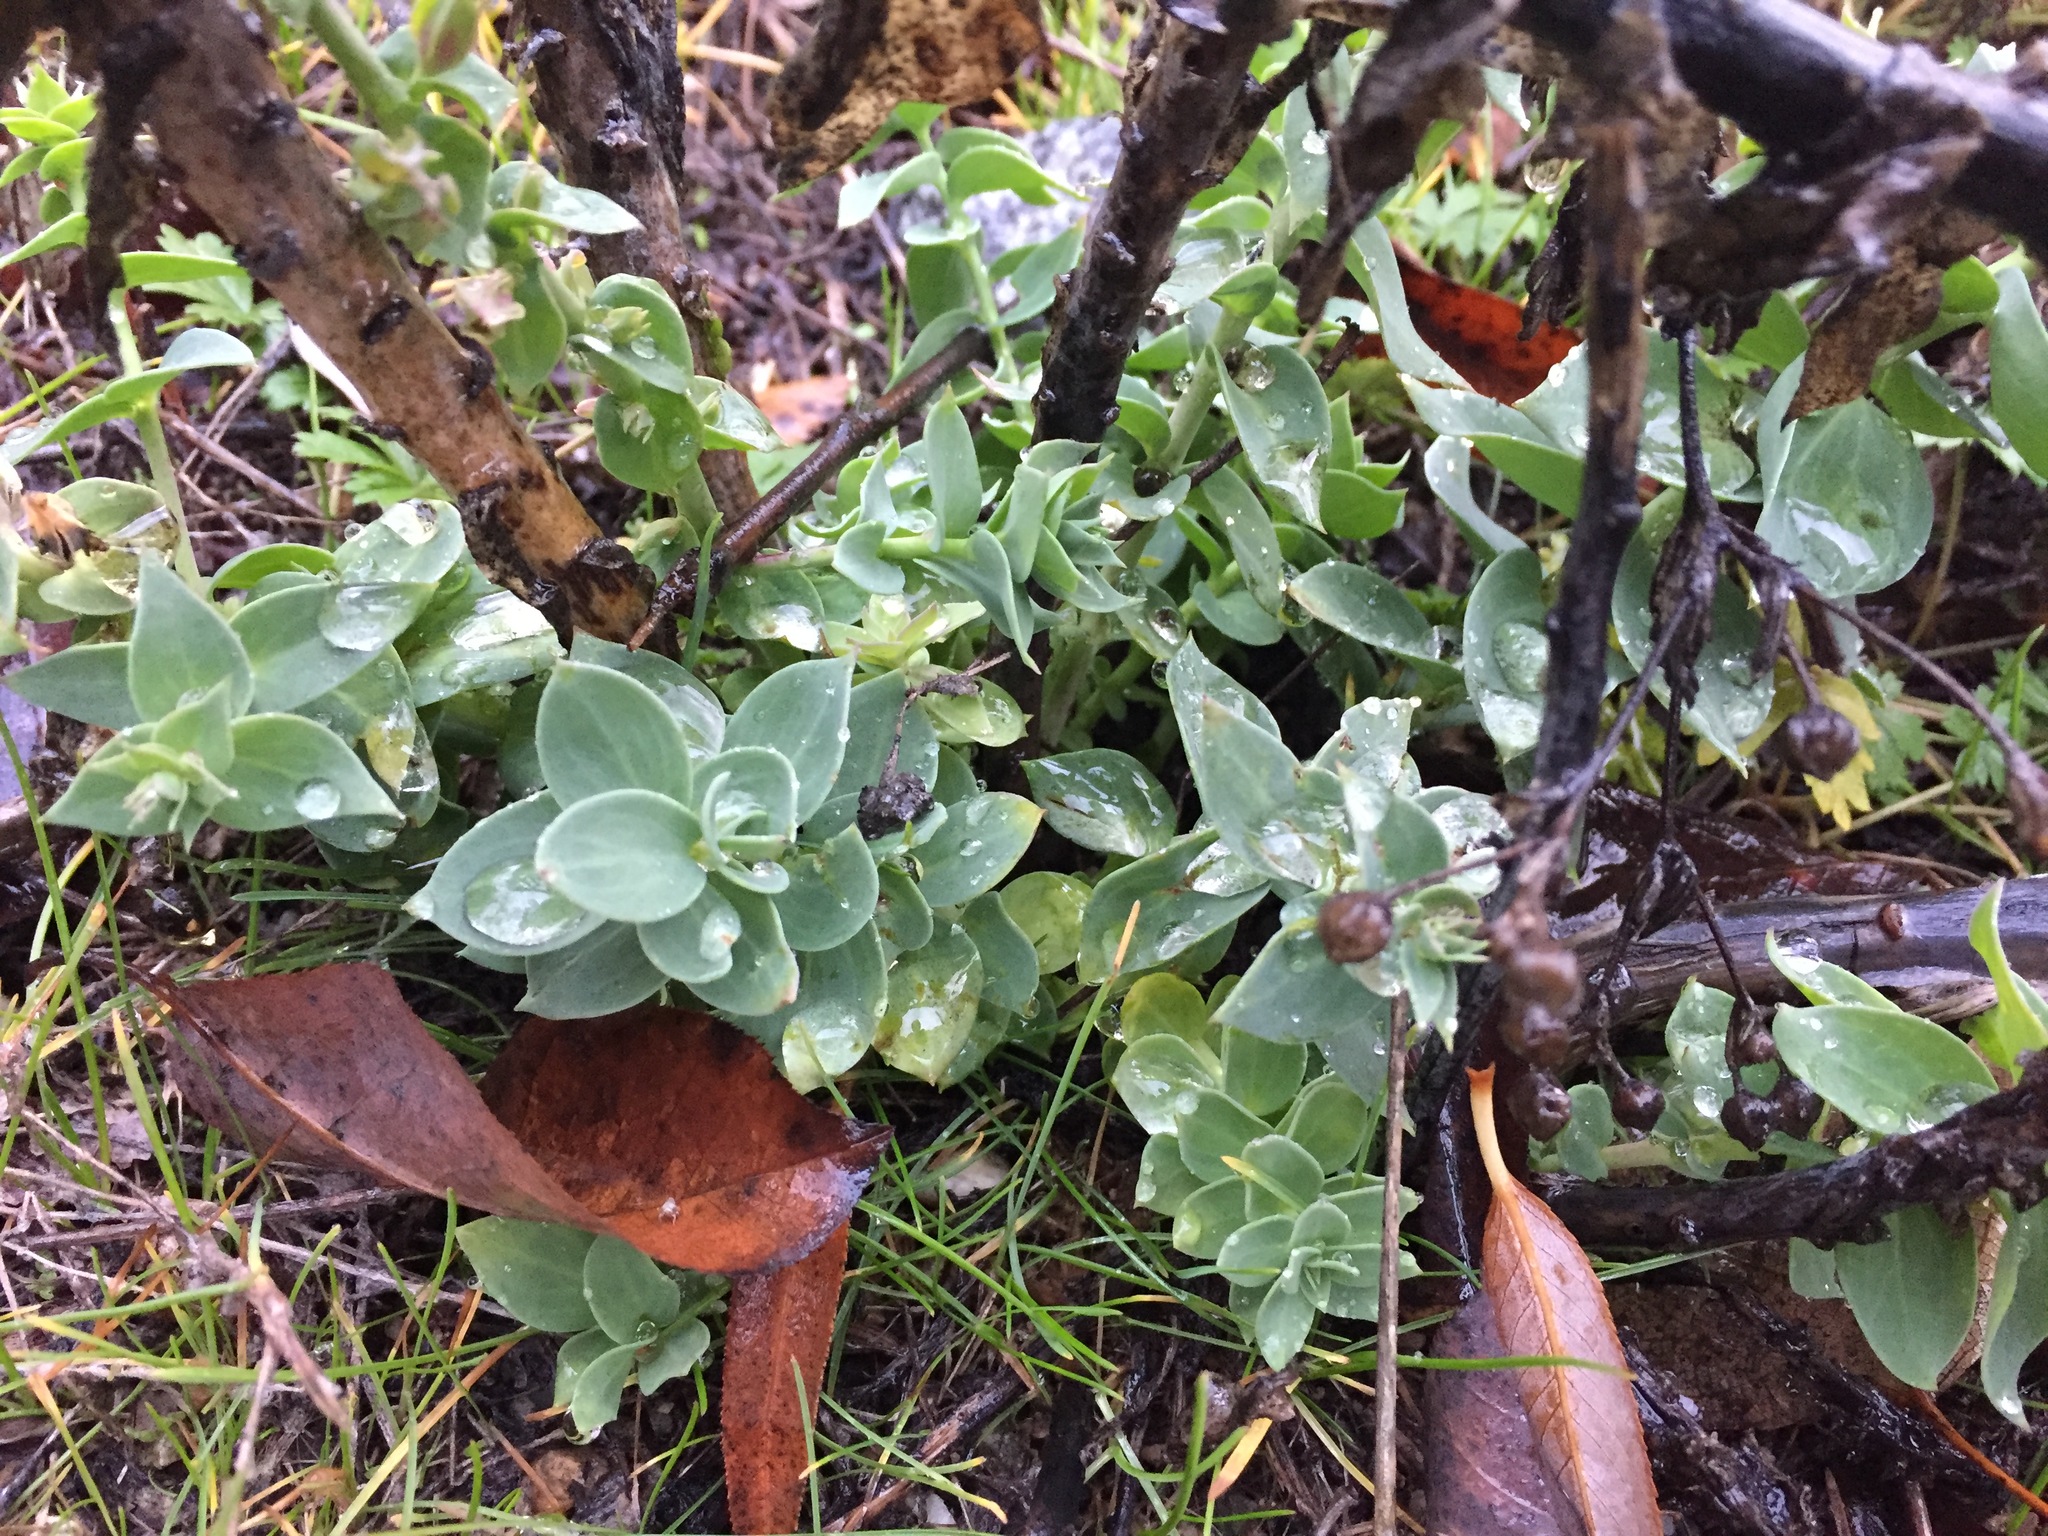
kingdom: Plantae
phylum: Tracheophyta
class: Magnoliopsida
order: Lamiales
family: Plantaginaceae
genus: Linaria
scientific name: Linaria dalmatica
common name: Dalmatian toadflax
